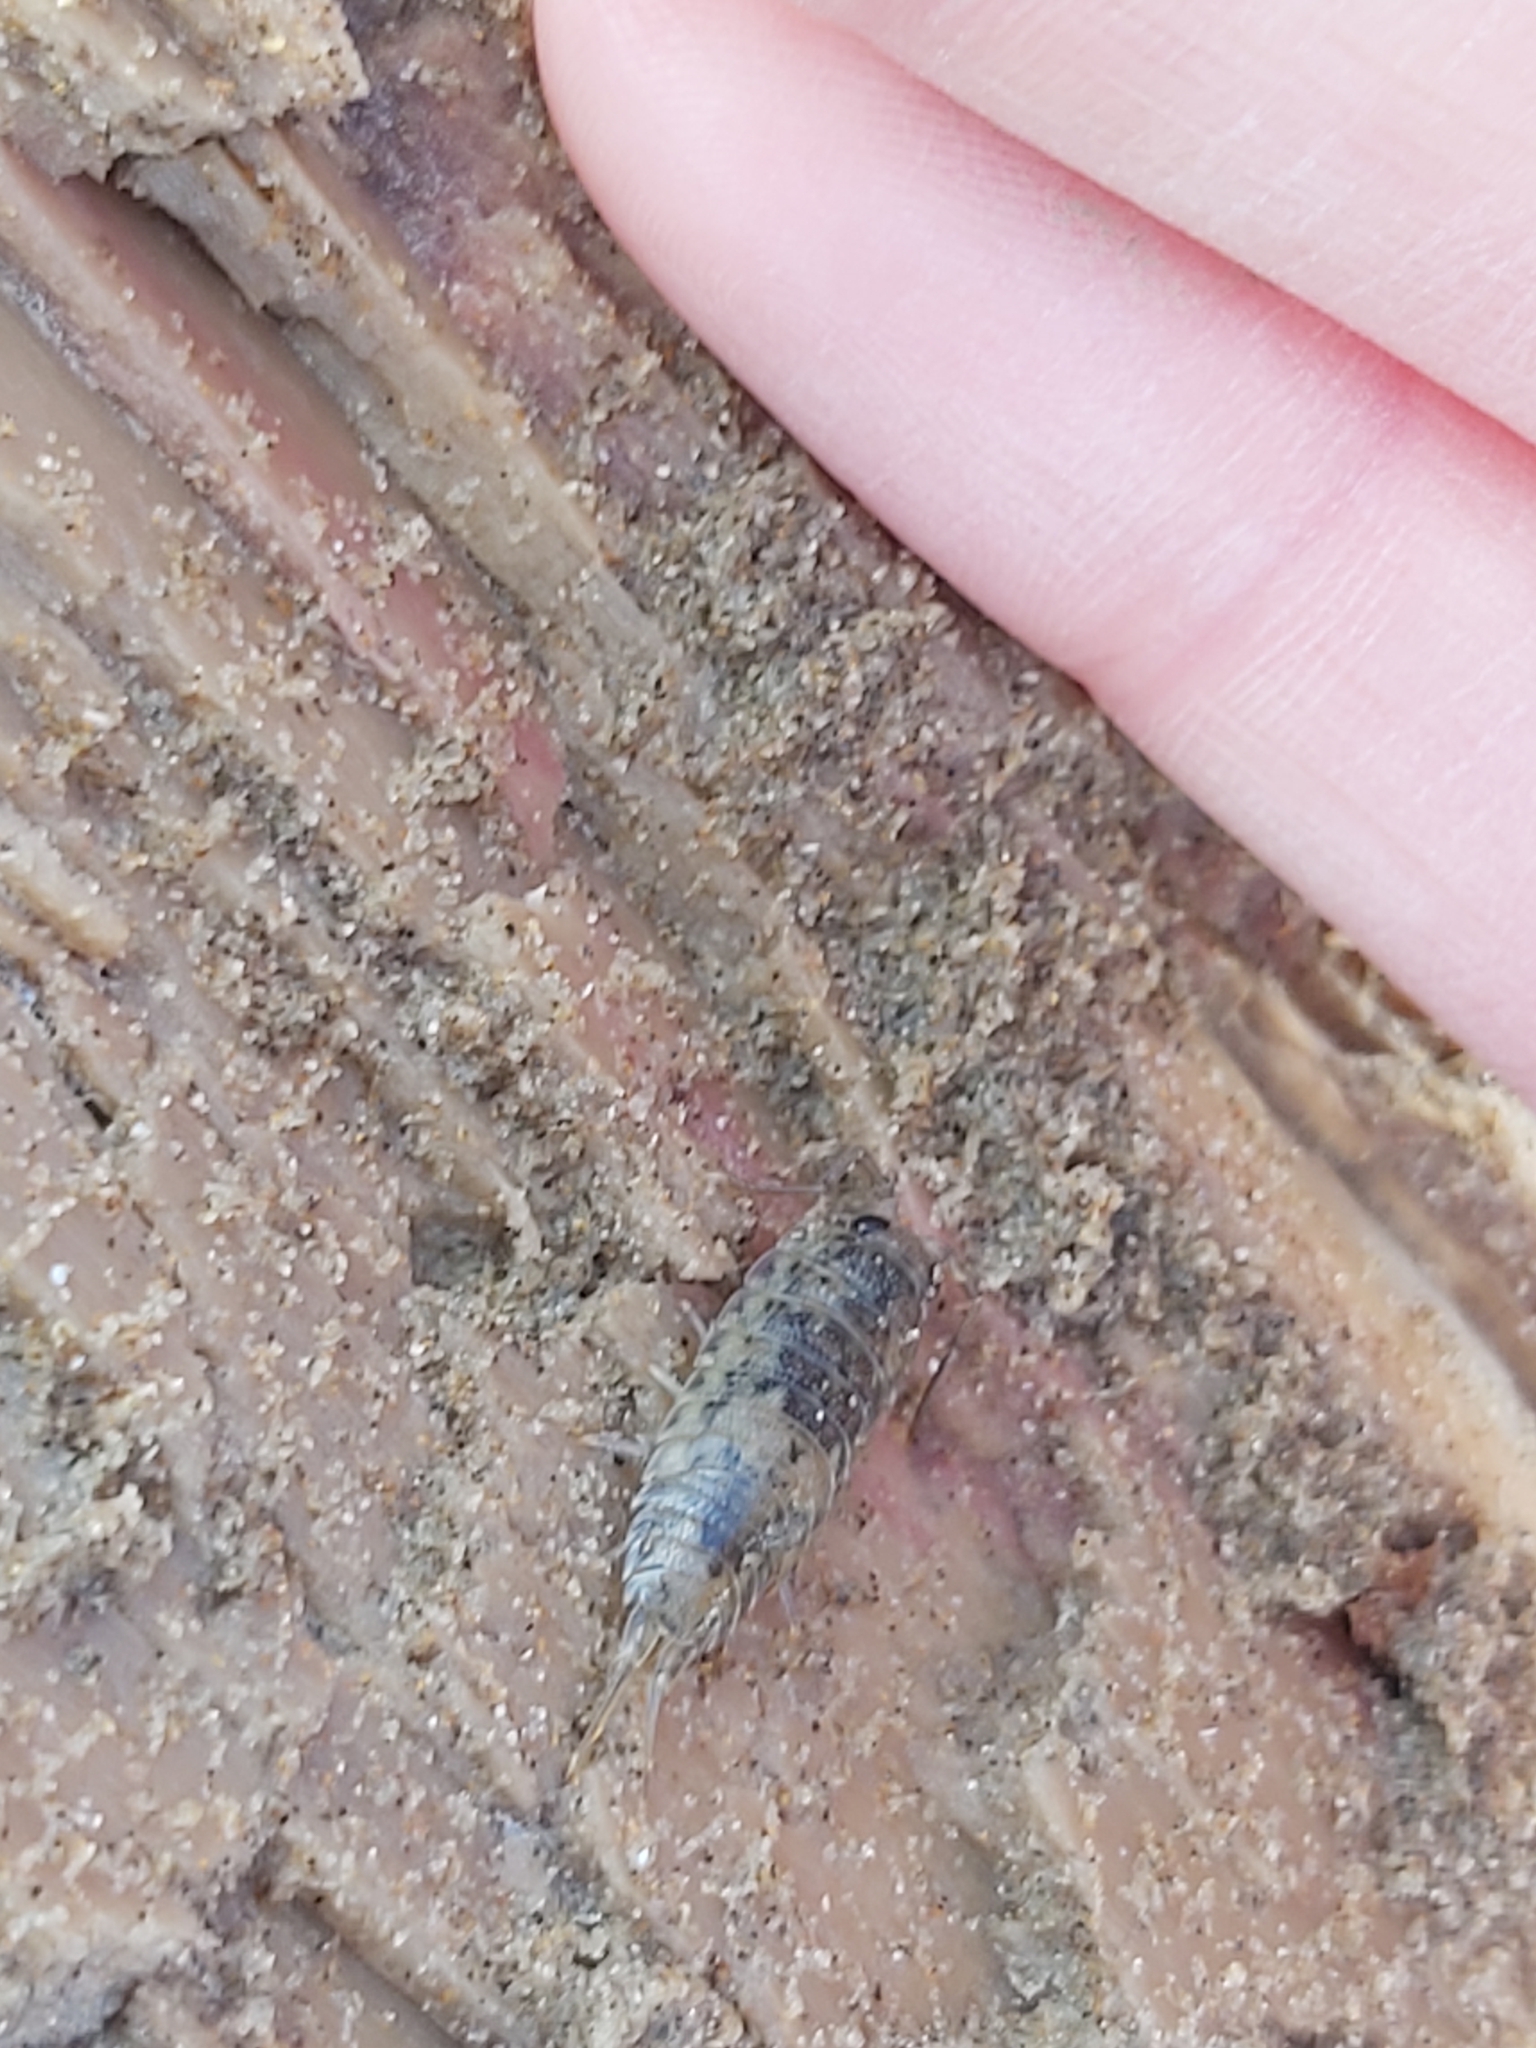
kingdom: Animalia
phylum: Arthropoda
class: Malacostraca
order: Isopoda
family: Ligiidae
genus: Ligia
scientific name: Ligia oceanica
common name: Sea slater
